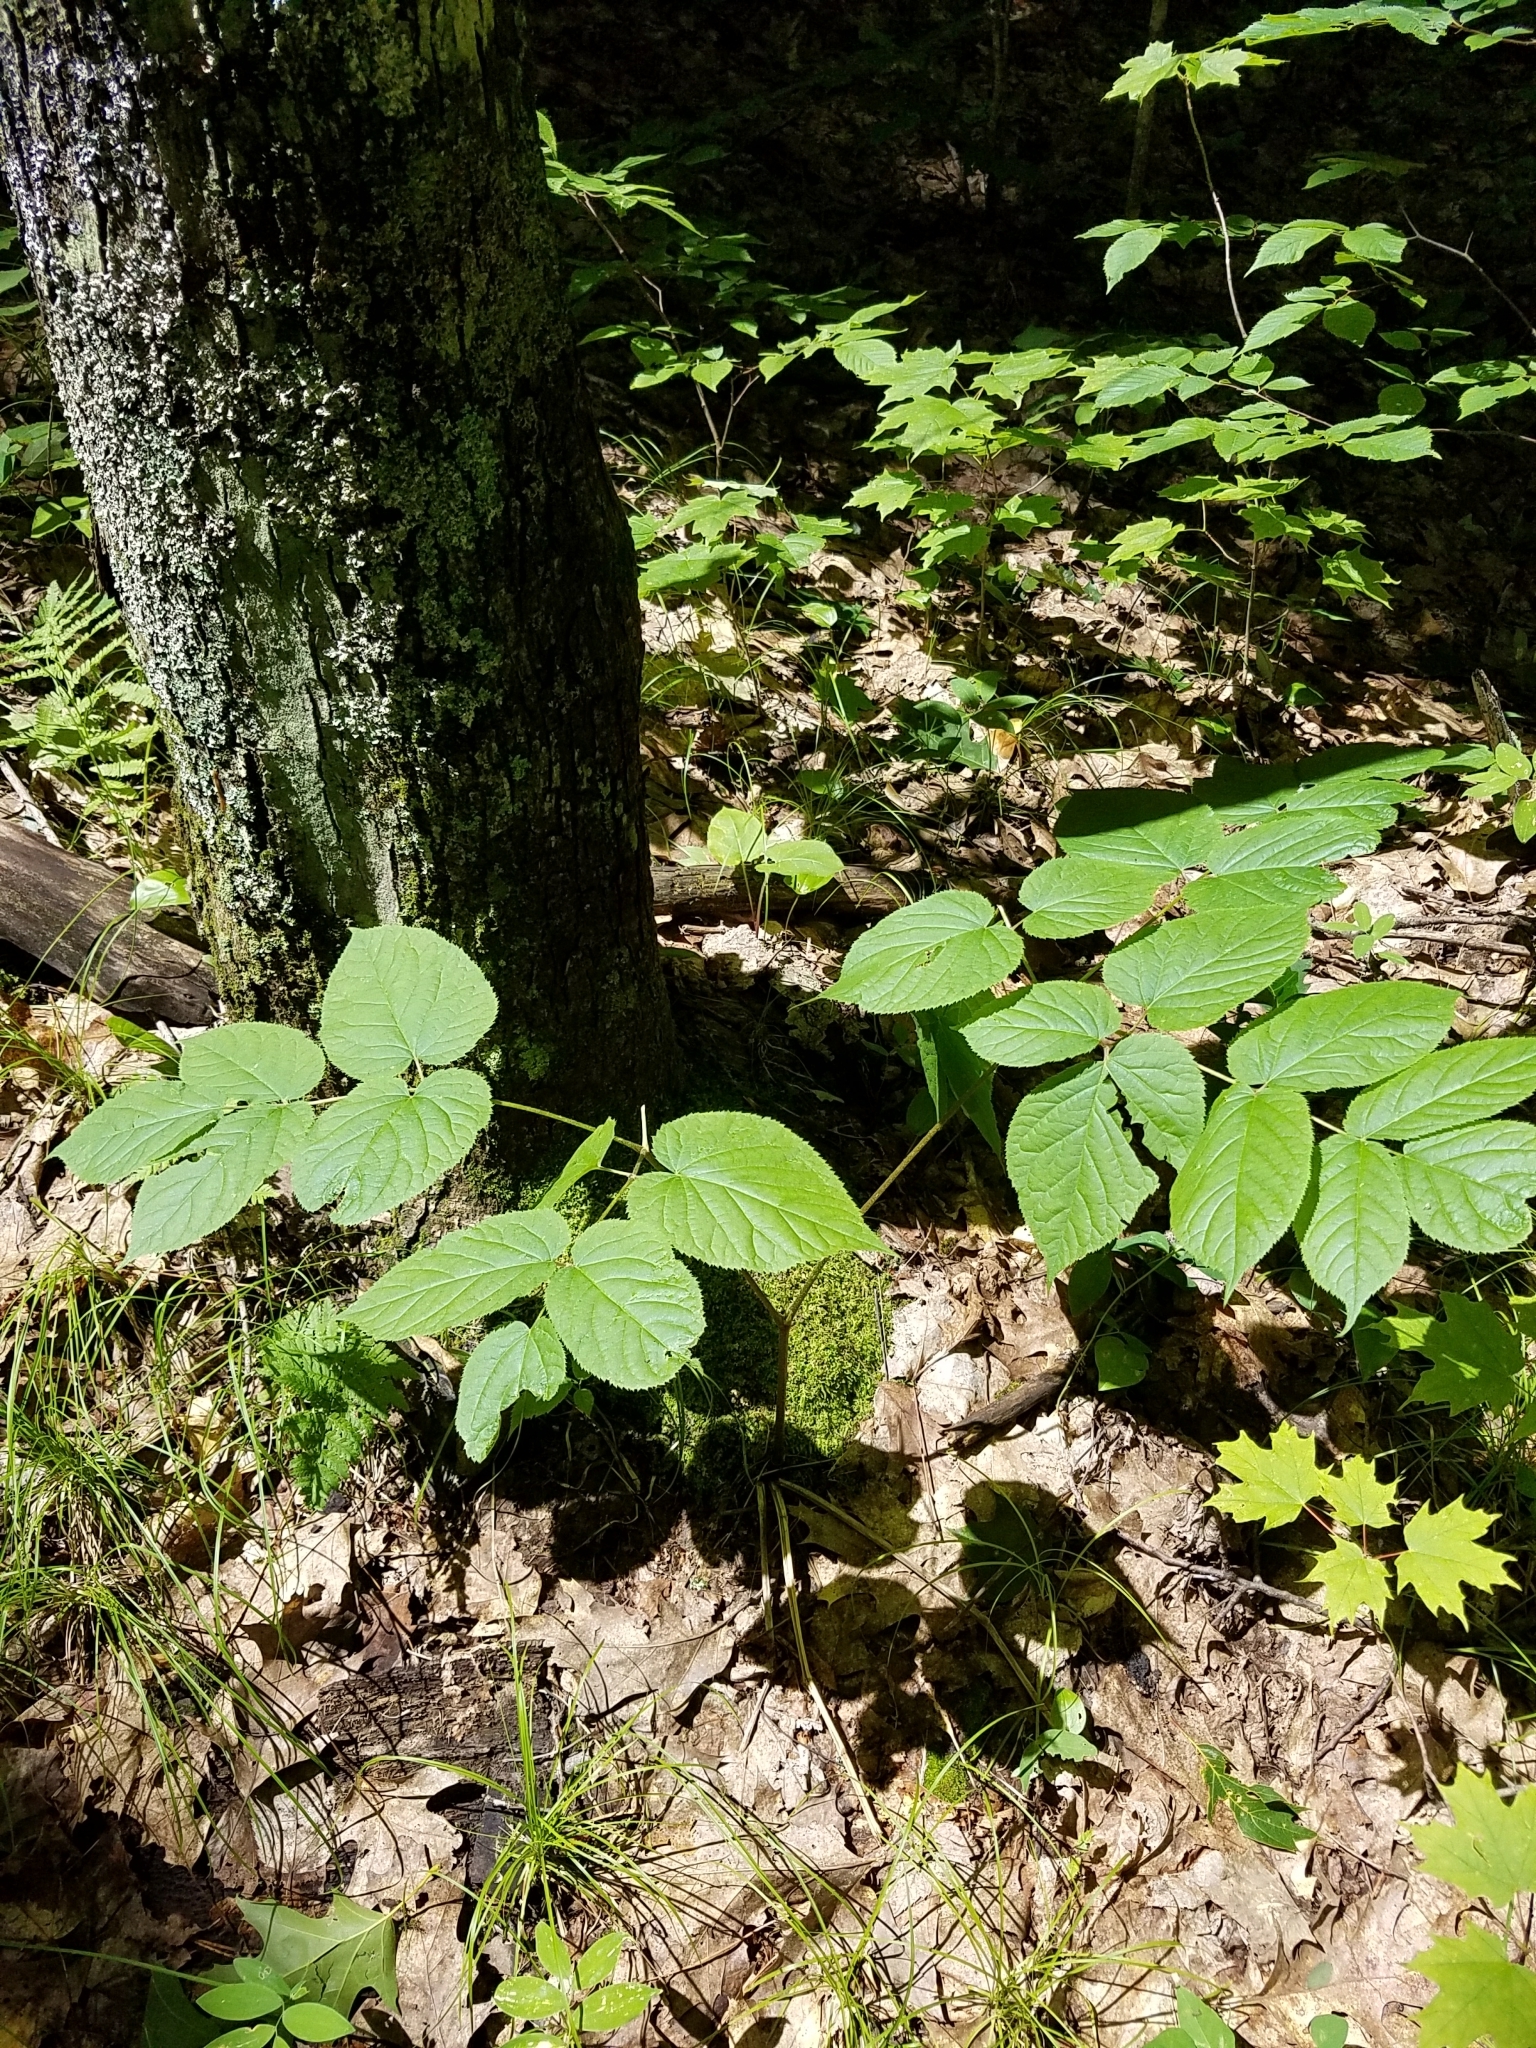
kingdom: Plantae
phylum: Tracheophyta
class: Magnoliopsida
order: Apiales
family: Araliaceae
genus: Aralia
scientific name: Aralia racemosa
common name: American-spikenard
